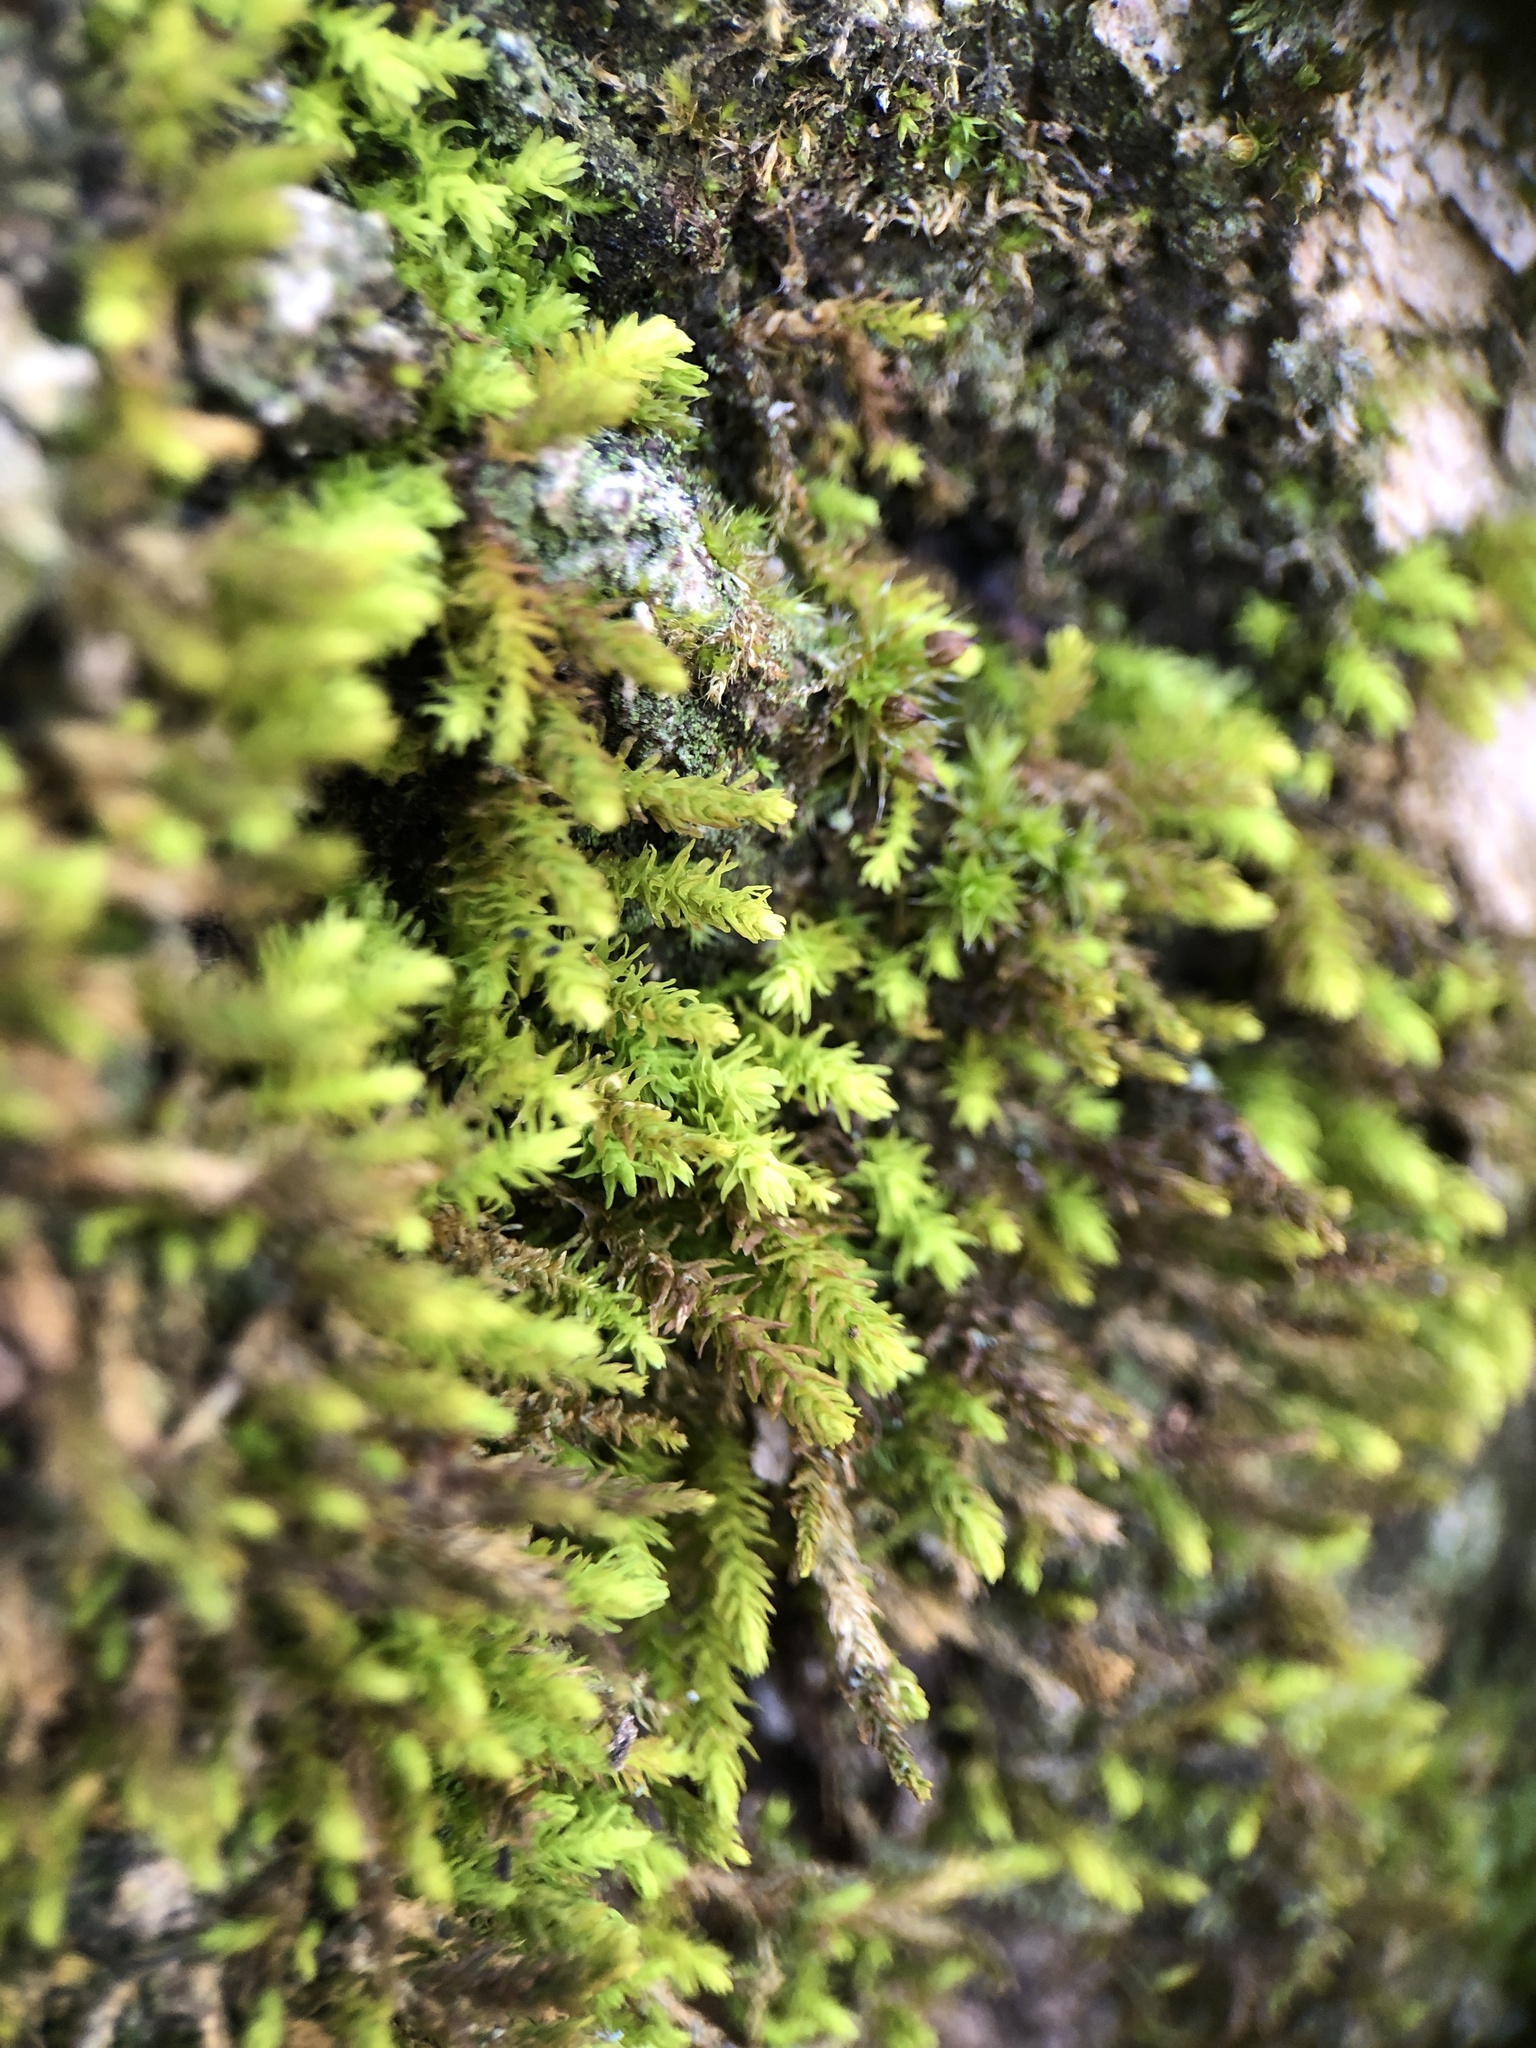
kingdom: Plantae
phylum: Bryophyta
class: Bryopsida
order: Hypnales
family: Anomodontaceae
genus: Anomodon
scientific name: Anomodon viticulosus
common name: Tall anomodon
